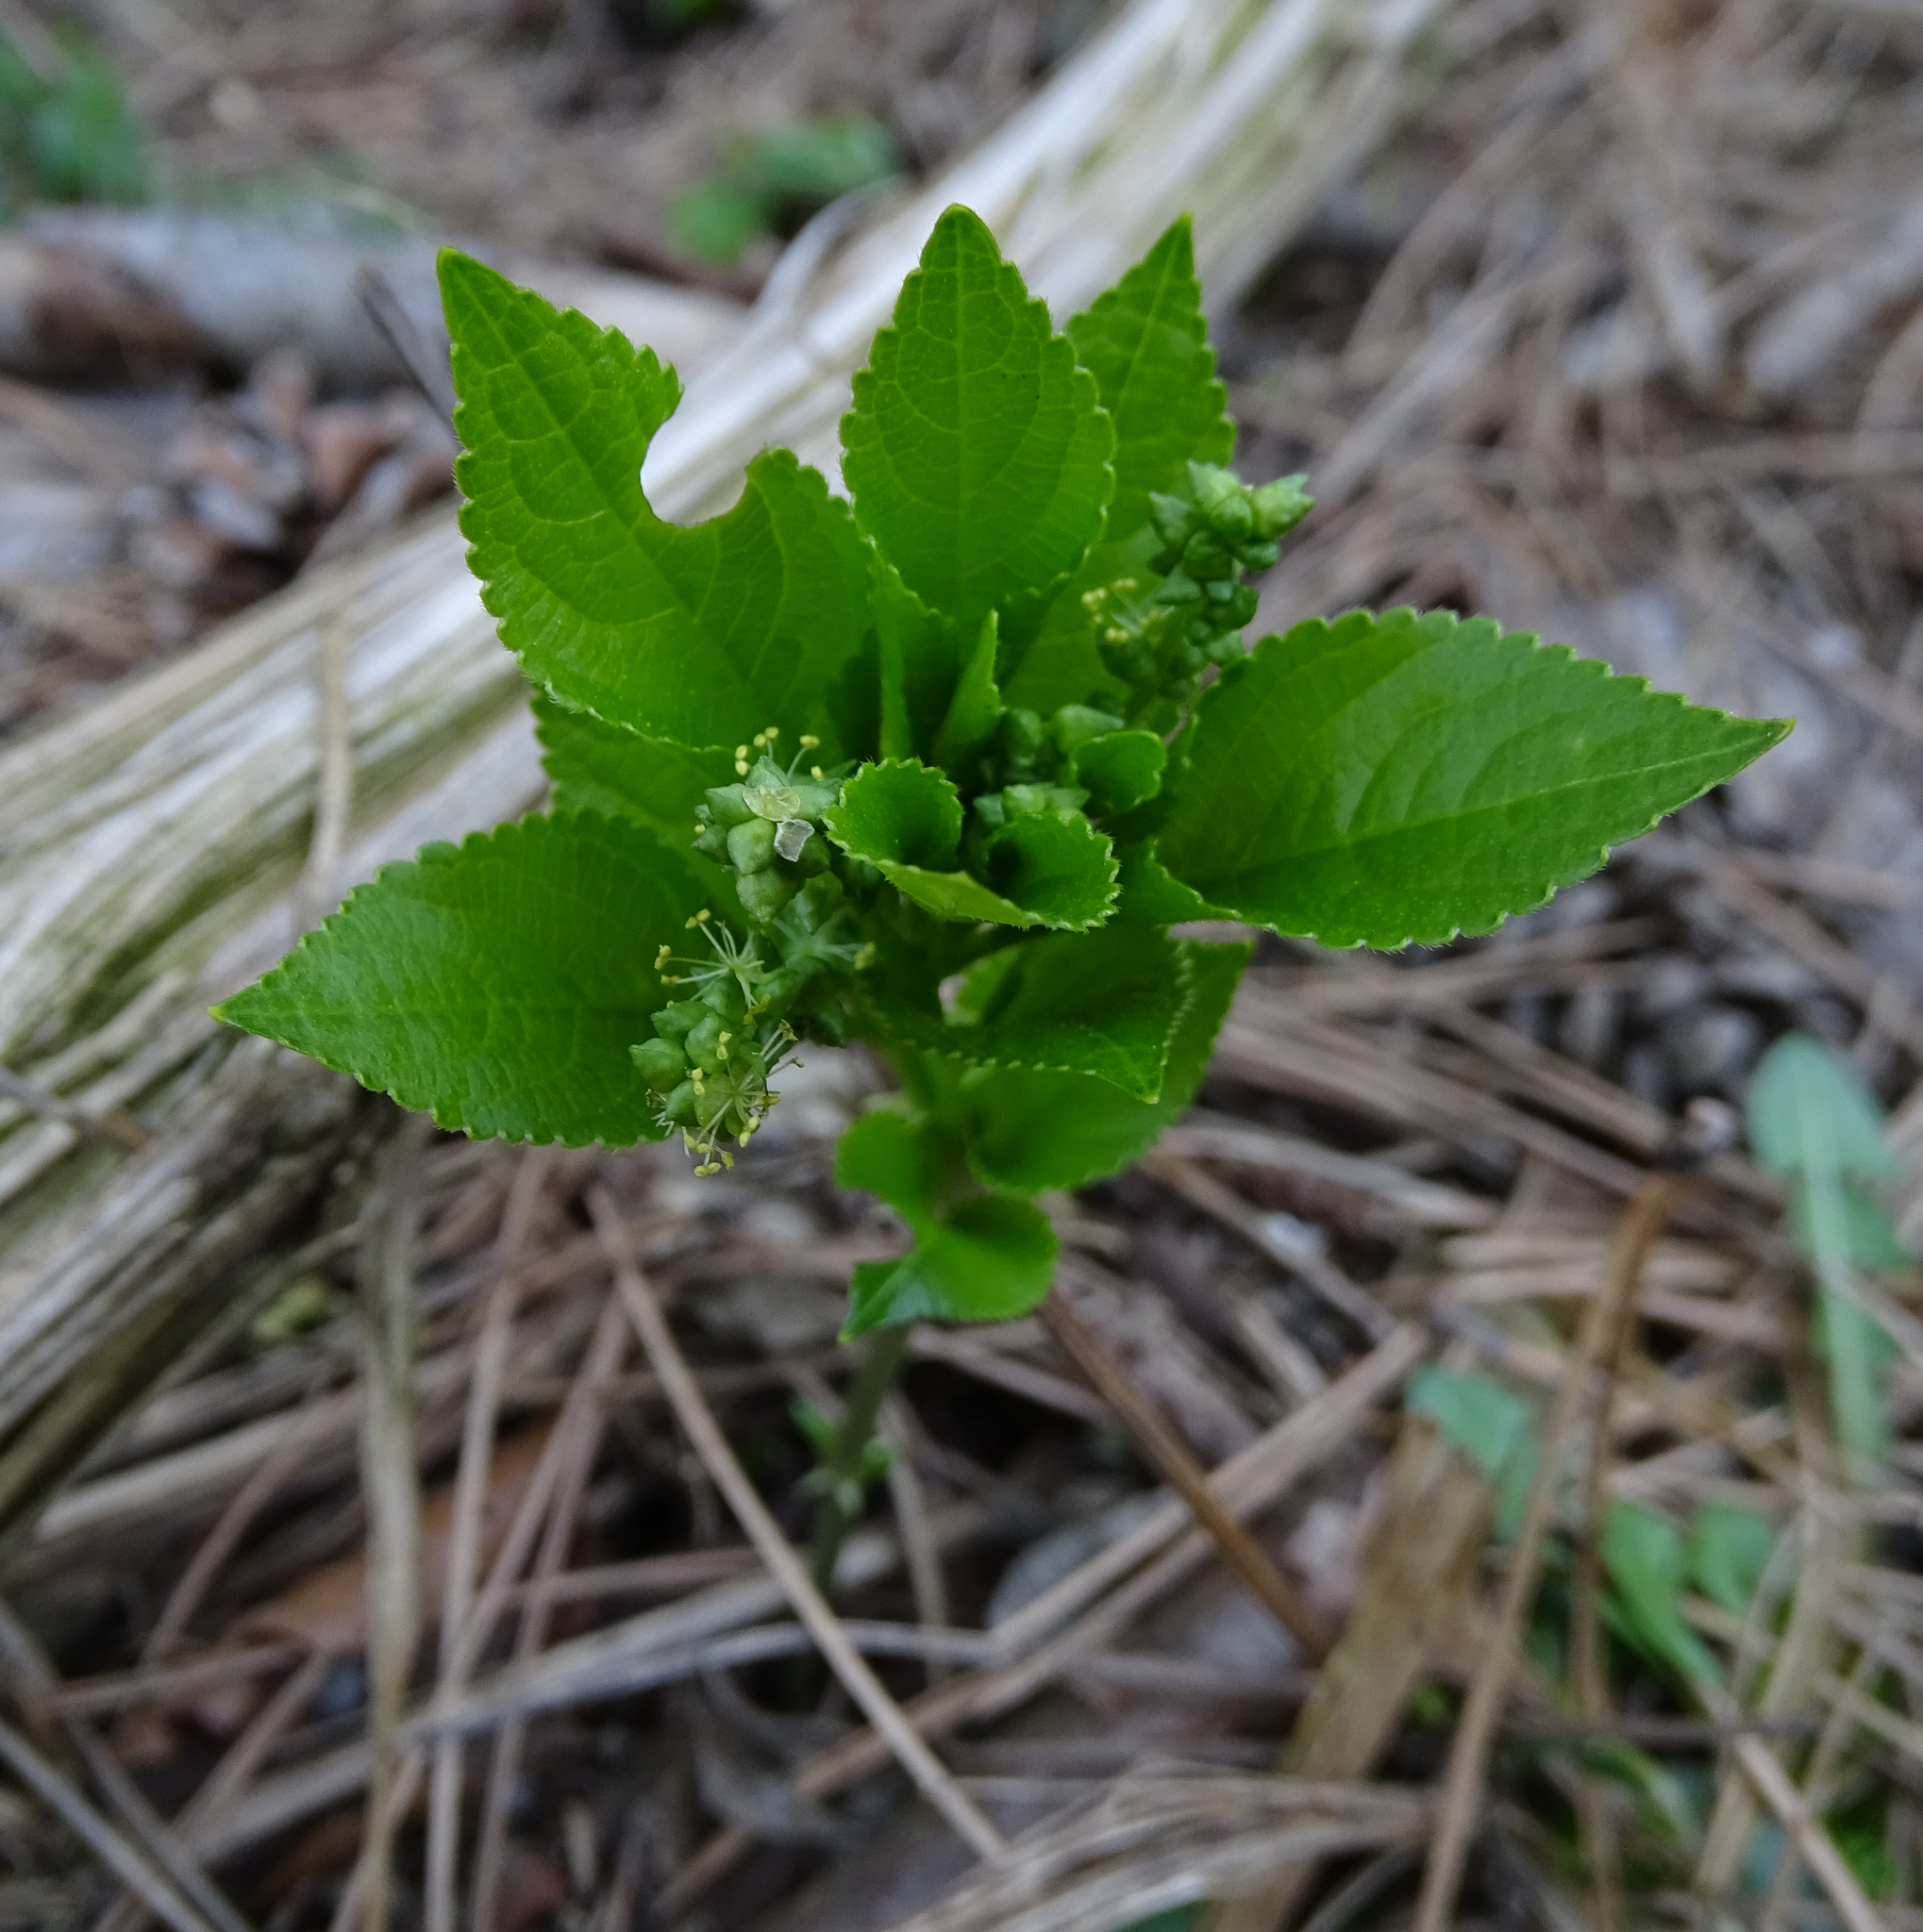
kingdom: Plantae
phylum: Tracheophyta
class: Magnoliopsida
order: Malpighiales
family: Euphorbiaceae
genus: Mercurialis
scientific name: Mercurialis perennis
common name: Dog mercury
